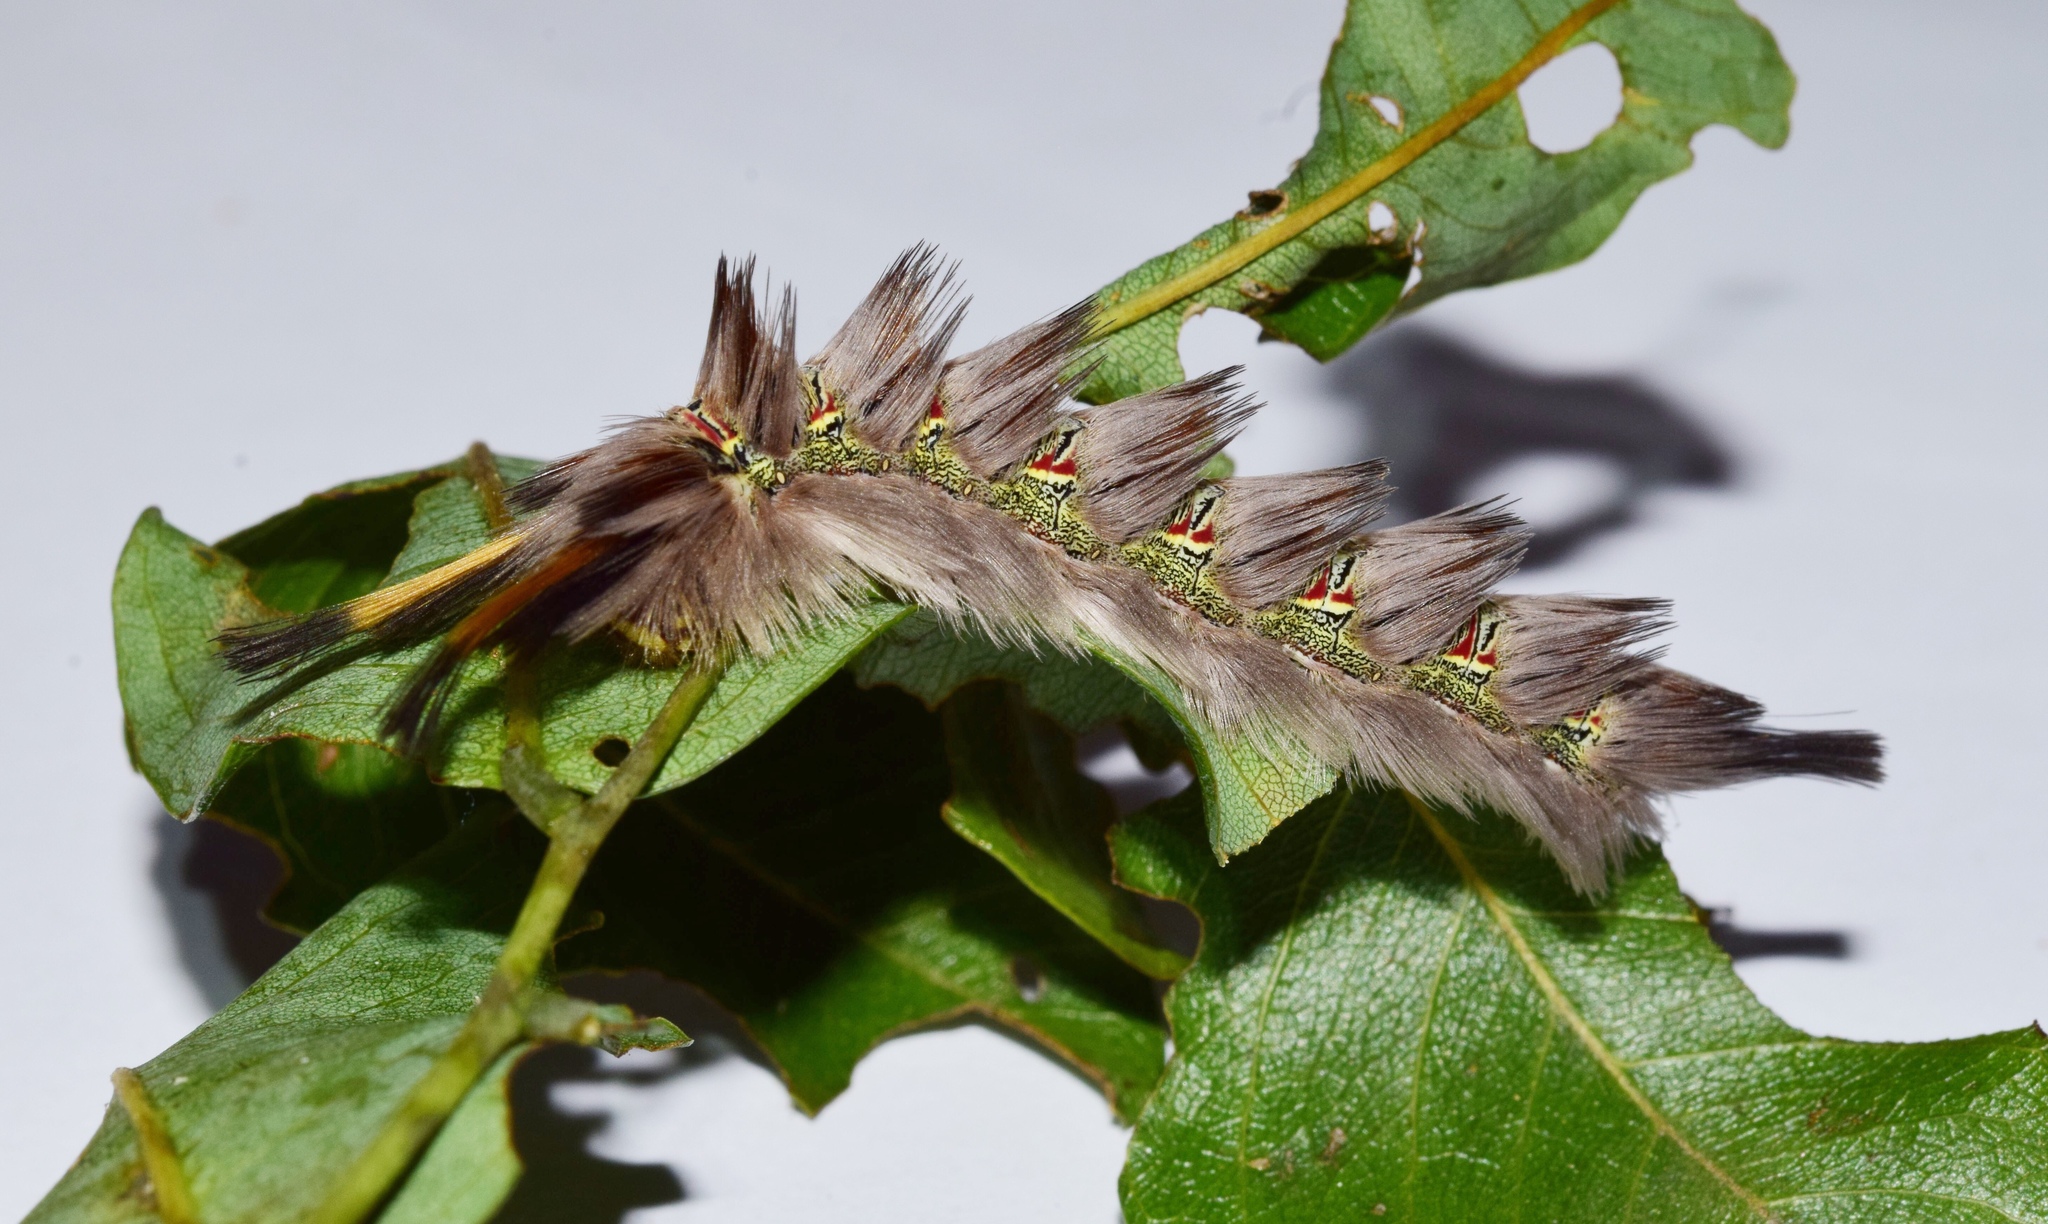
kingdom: Animalia
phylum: Arthropoda
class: Insecta
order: Lepidoptera
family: Eupterotidae
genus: Lichenopteryx
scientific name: Lichenopteryx despecta
